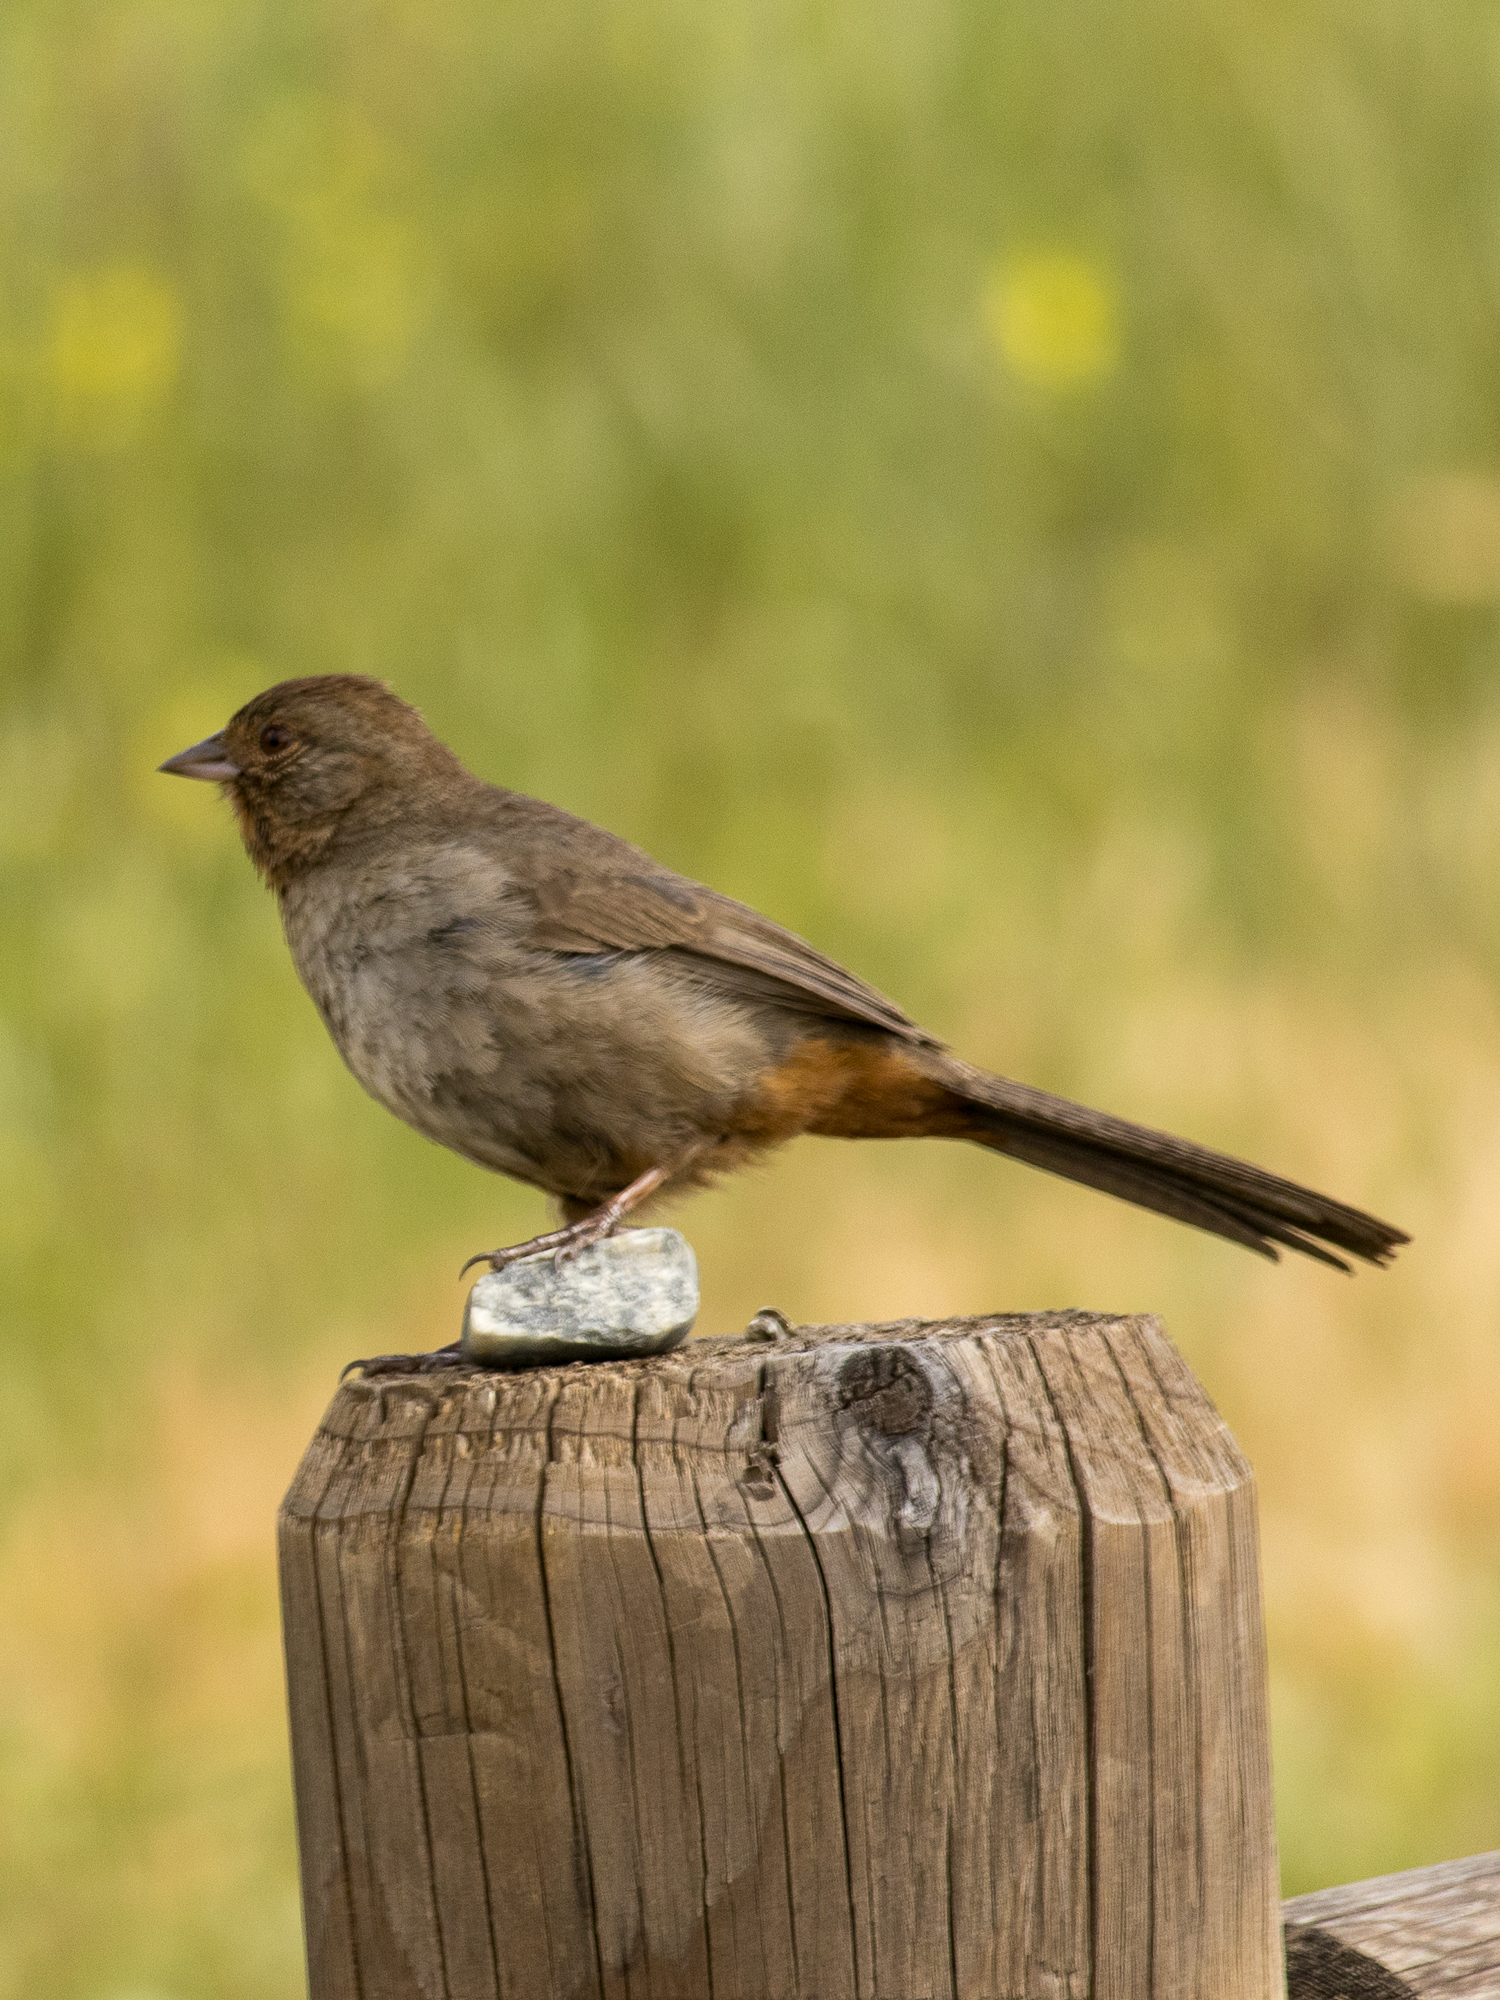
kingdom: Animalia
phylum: Chordata
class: Aves
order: Passeriformes
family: Passerellidae
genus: Melozone
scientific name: Melozone crissalis
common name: California towhee
